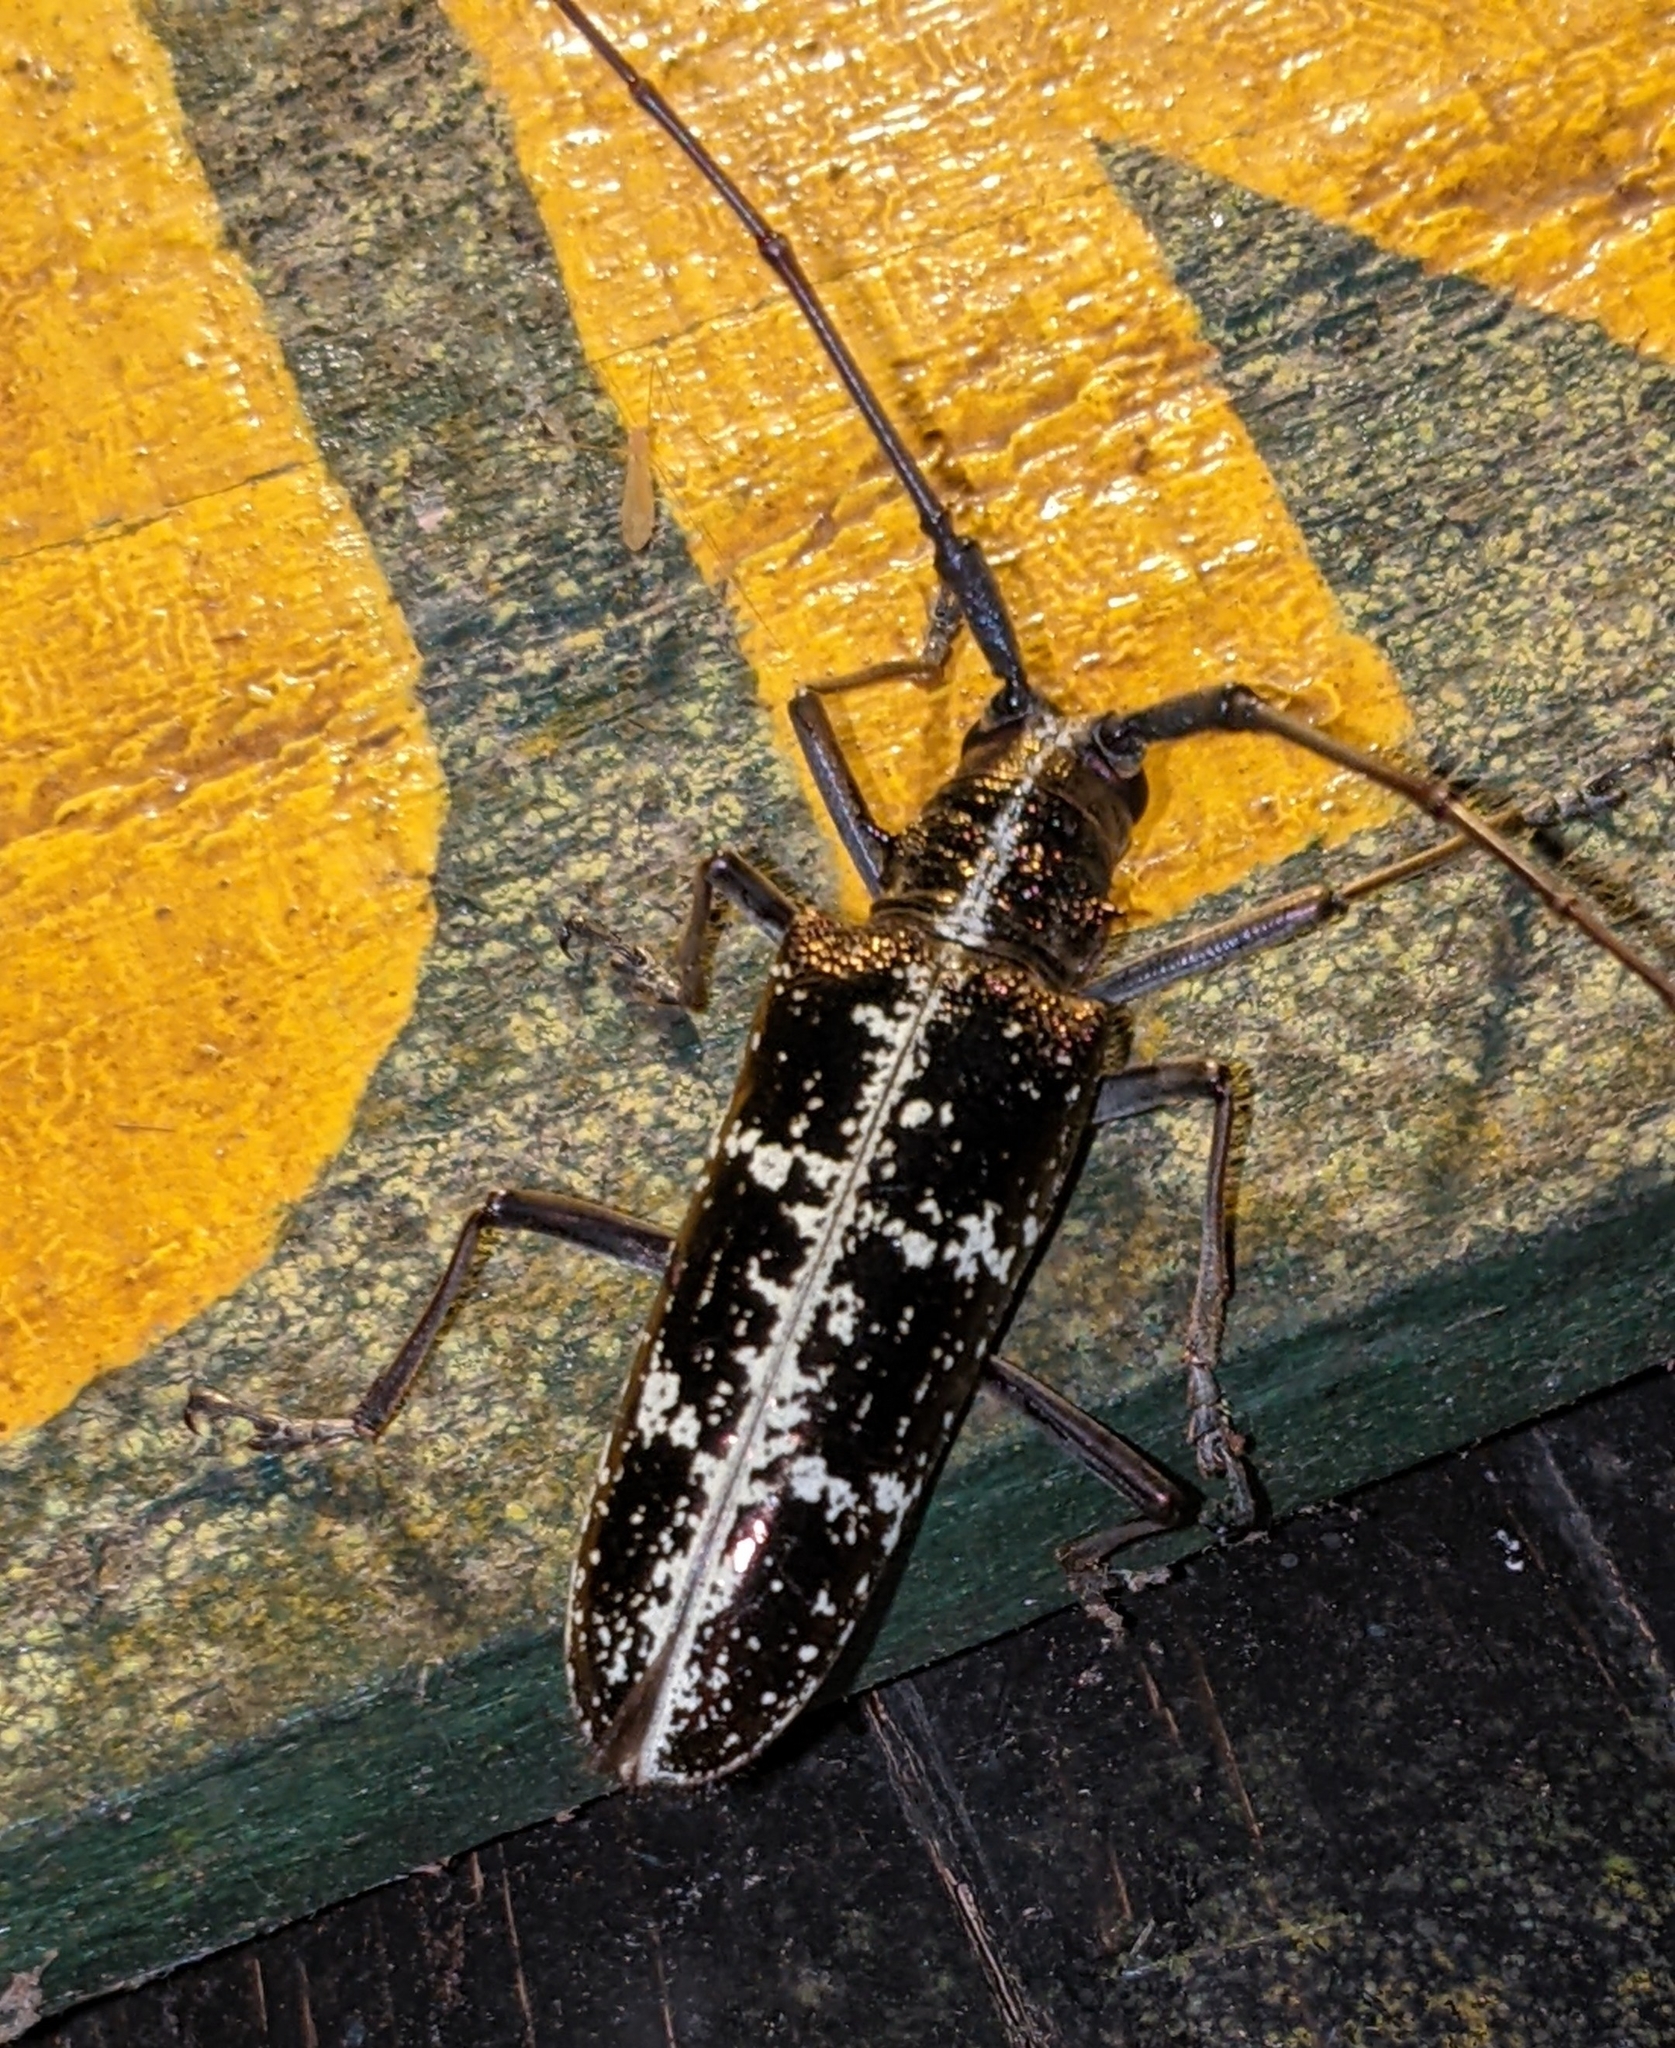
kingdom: Animalia
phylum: Arthropoda
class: Insecta
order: Coleoptera
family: Cerambycidae
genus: Taeniotes
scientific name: Taeniotes praeclarus
